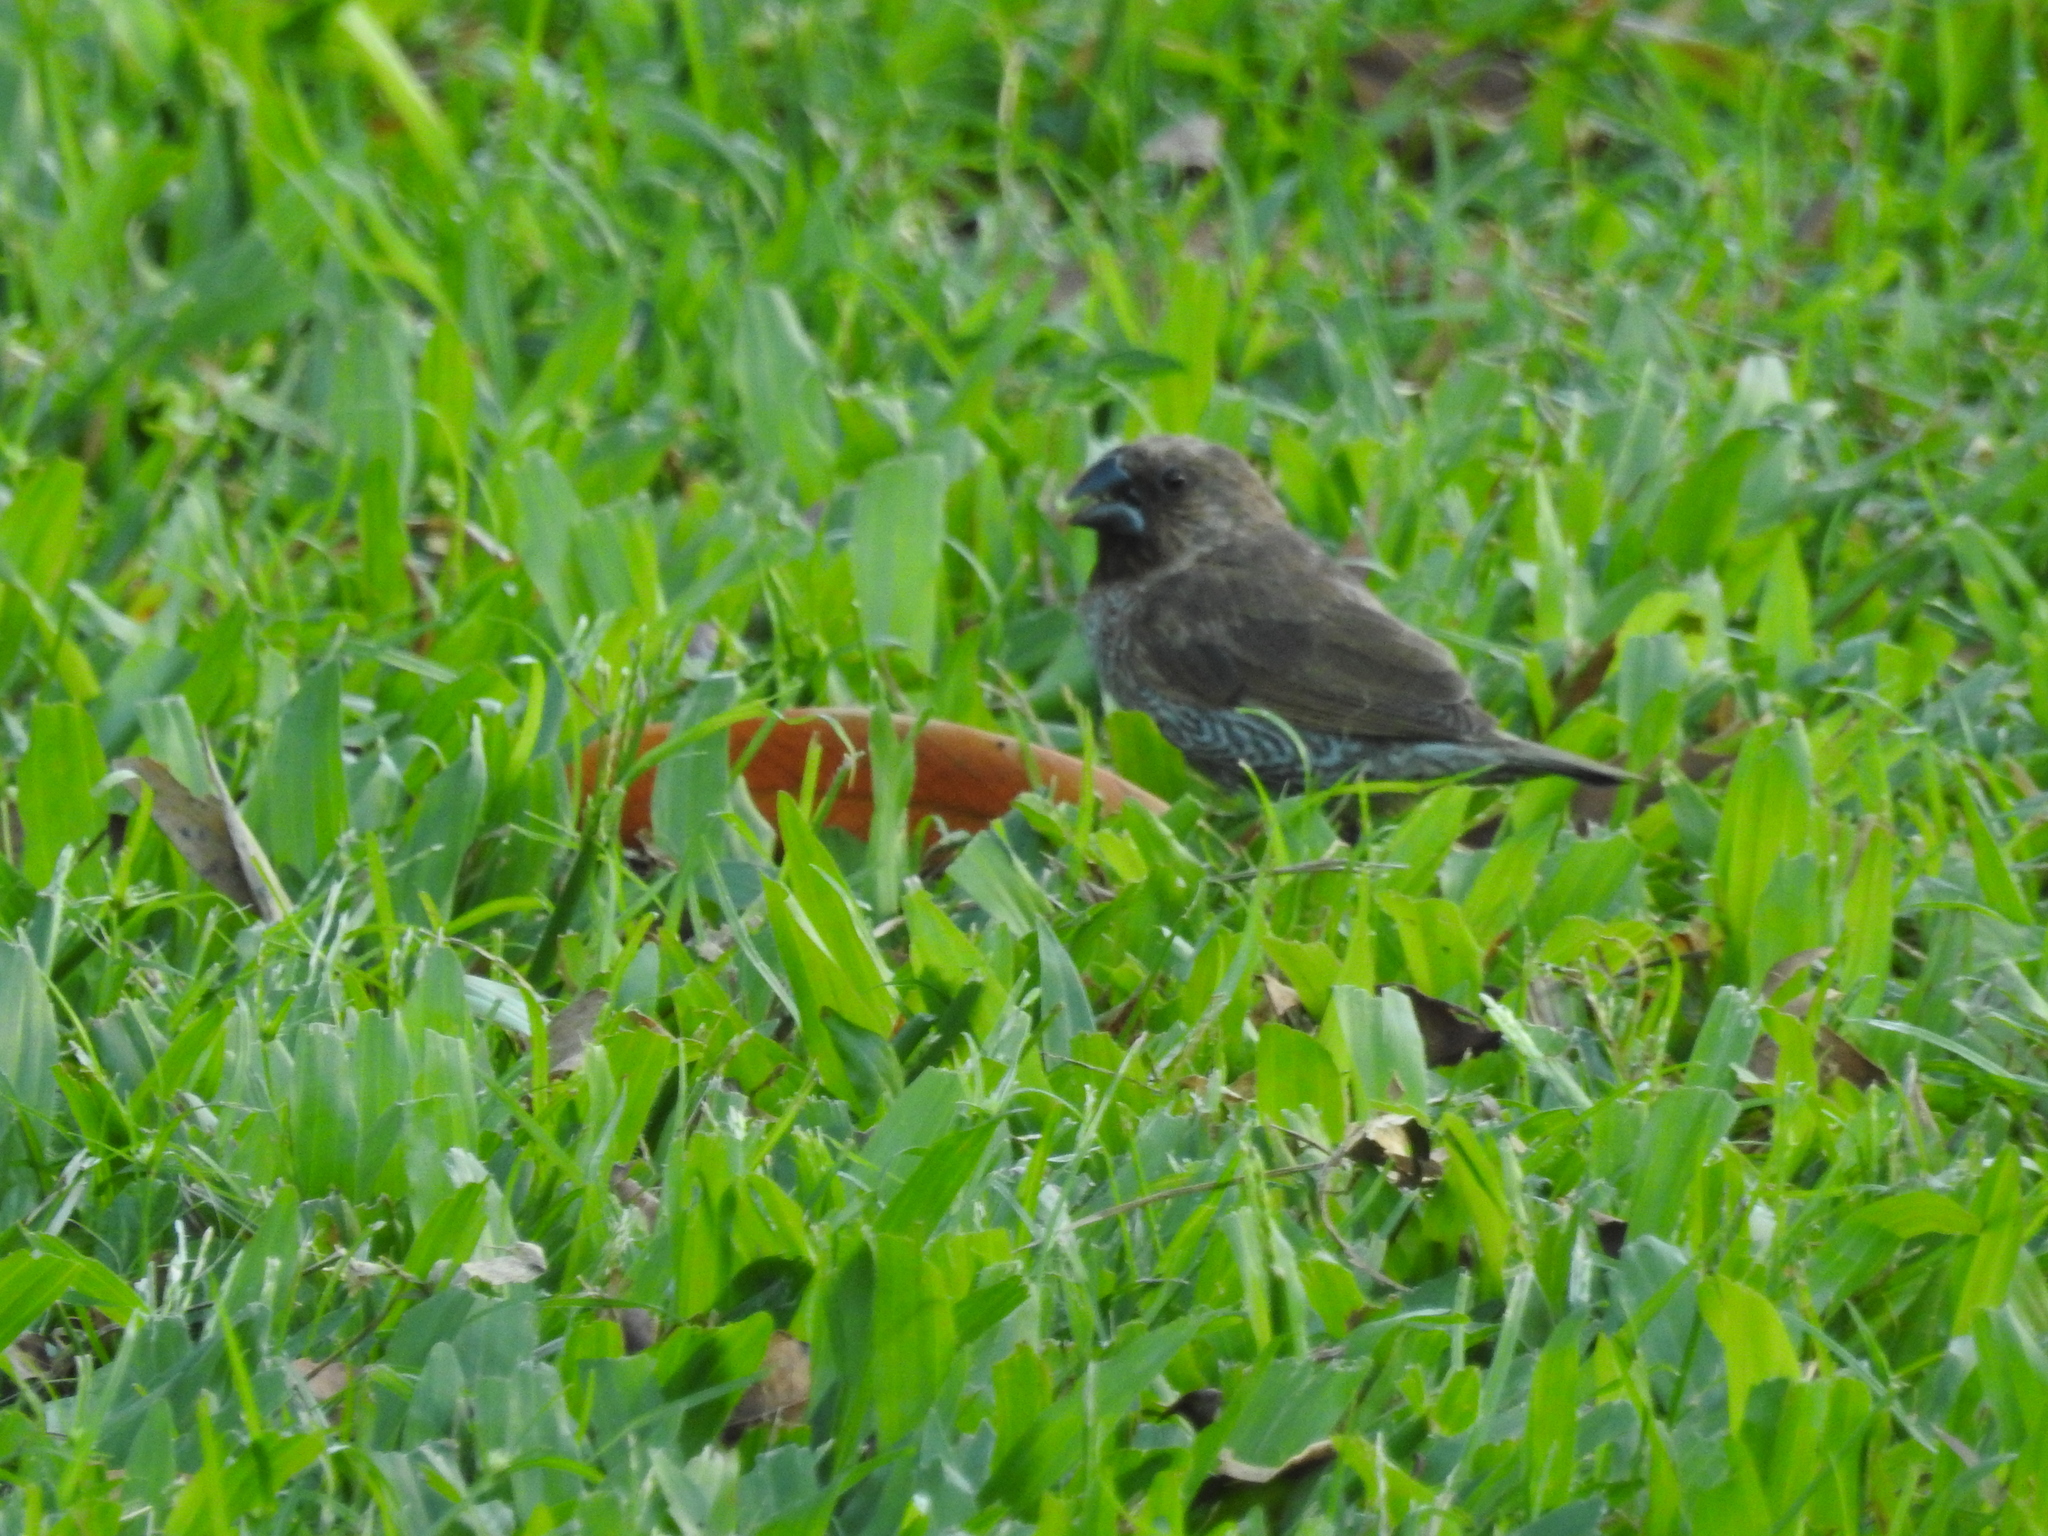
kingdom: Animalia
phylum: Chordata
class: Aves
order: Passeriformes
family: Estrildidae
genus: Lonchura
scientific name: Lonchura punctulata
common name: Scaly-breasted munia
